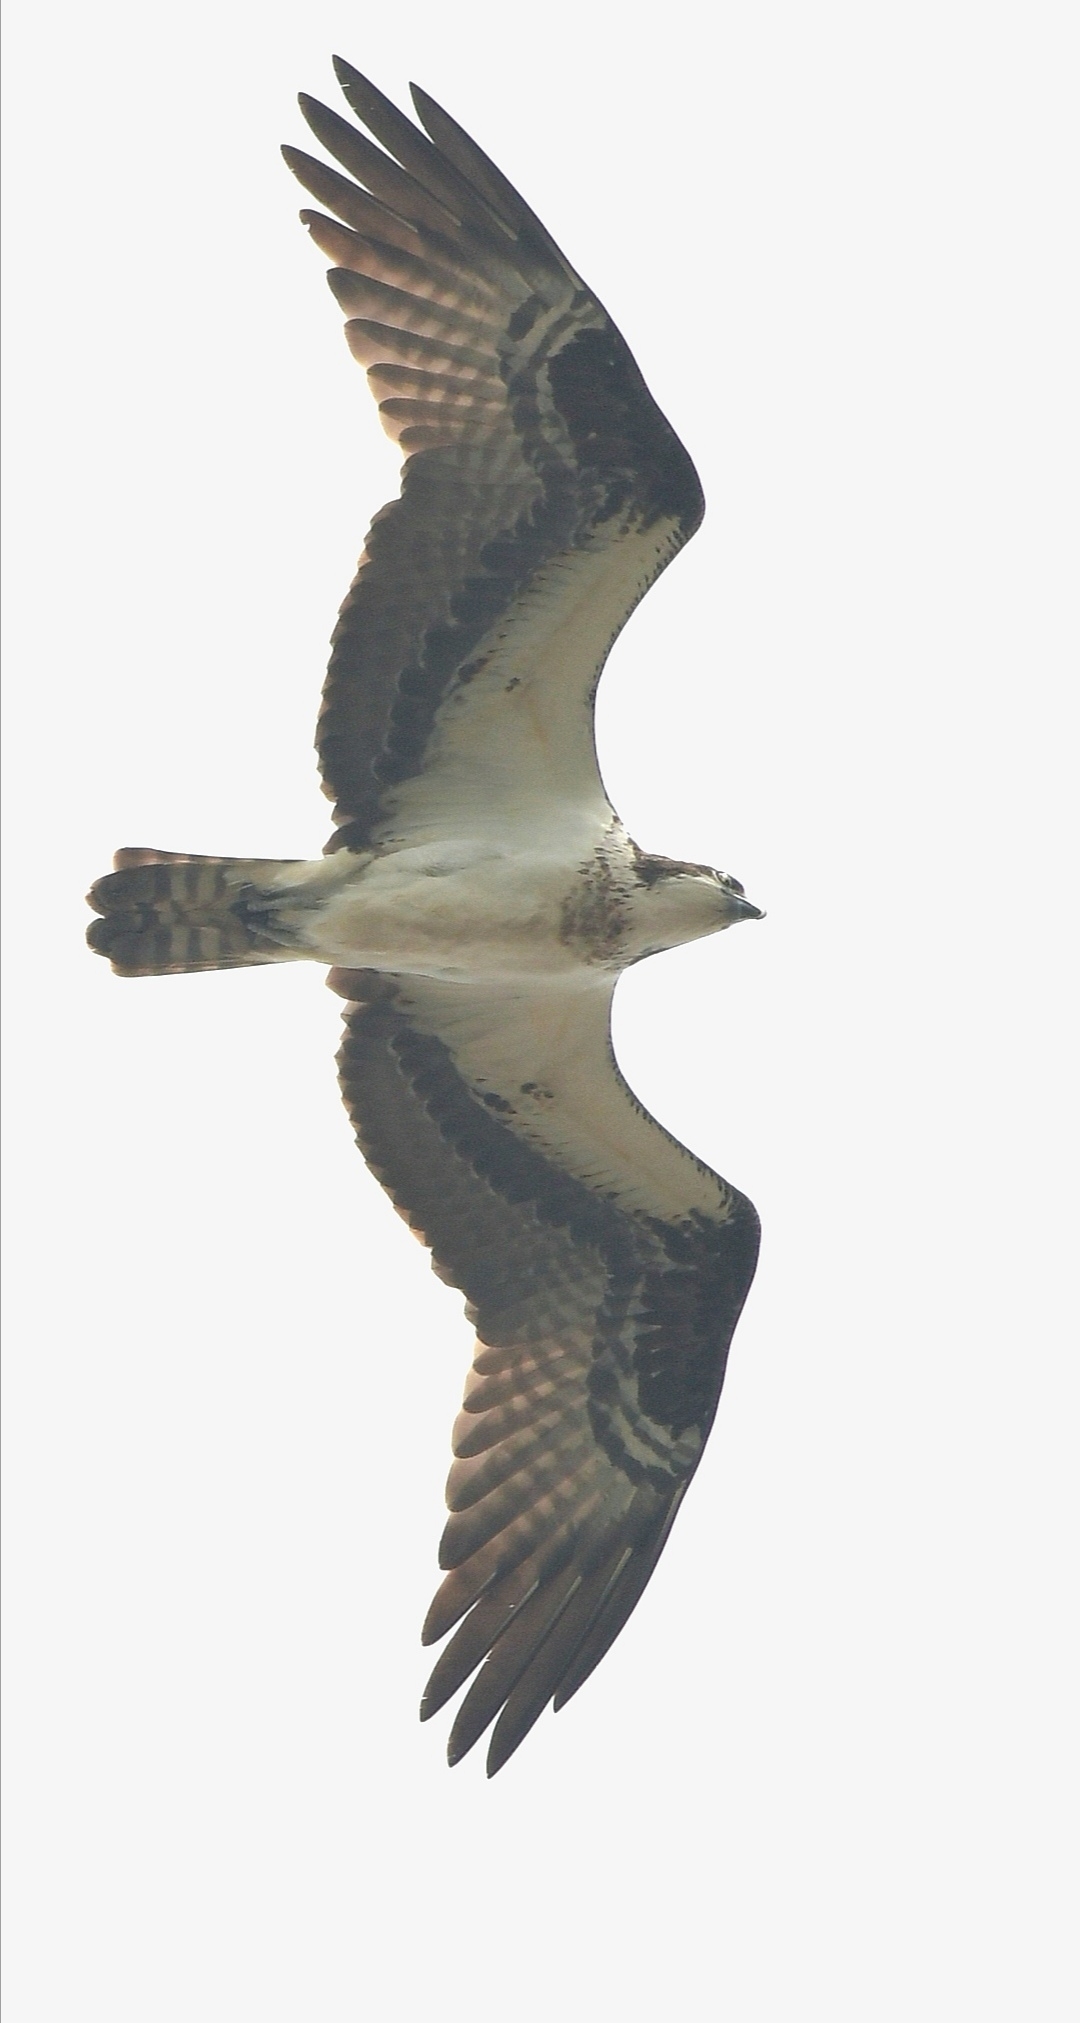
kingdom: Animalia
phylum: Chordata
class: Aves
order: Accipitriformes
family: Pandionidae
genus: Pandion
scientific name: Pandion haliaetus
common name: Osprey
